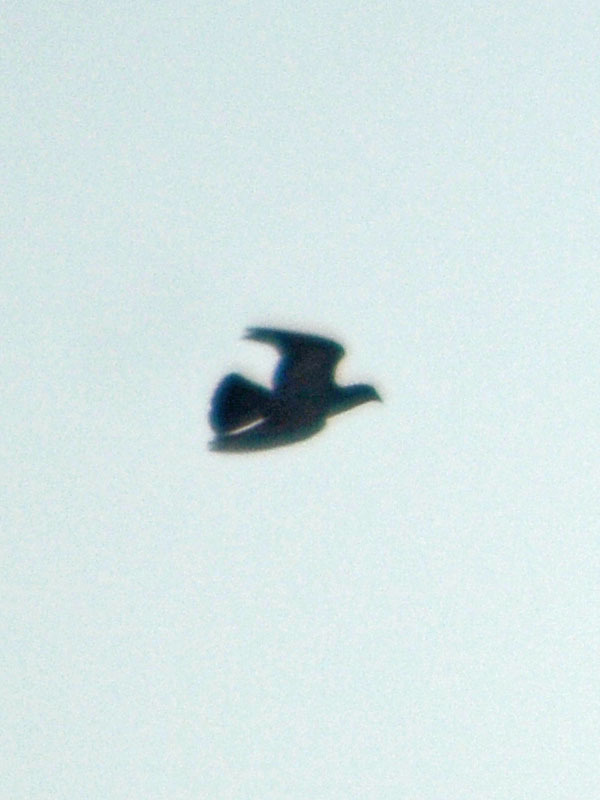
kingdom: Animalia
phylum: Chordata
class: Aves
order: Columbiformes
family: Columbidae
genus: Columba
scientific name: Columba livia
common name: Rock pigeon
